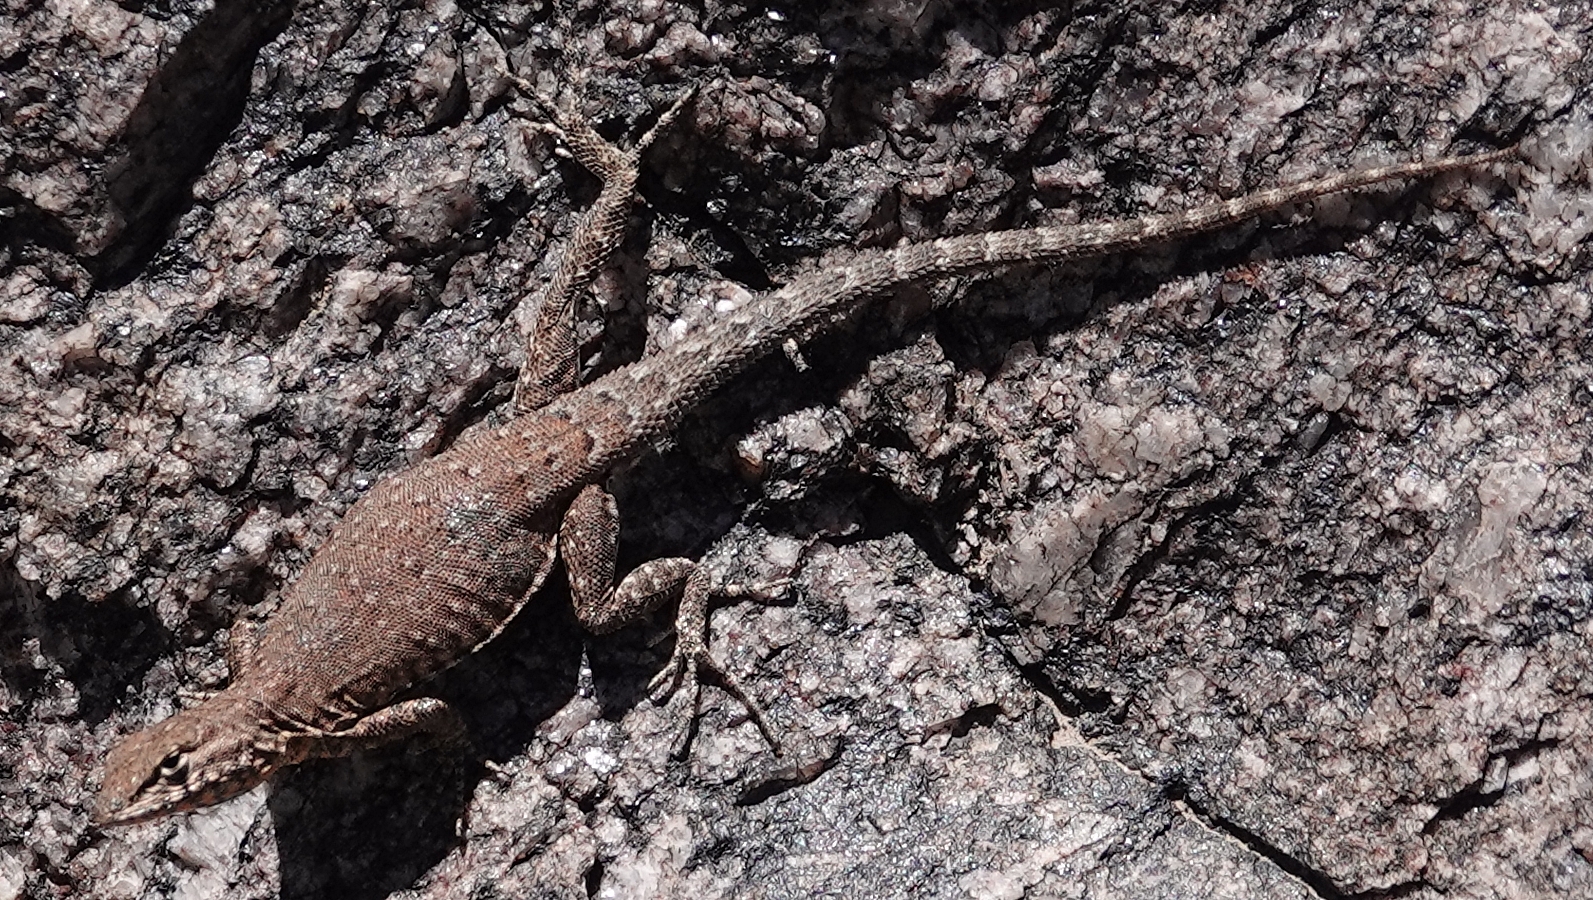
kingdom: Animalia
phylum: Chordata
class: Squamata
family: Phrynosomatidae
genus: Uta
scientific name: Uta stansburiana
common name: Side-blotched lizard
